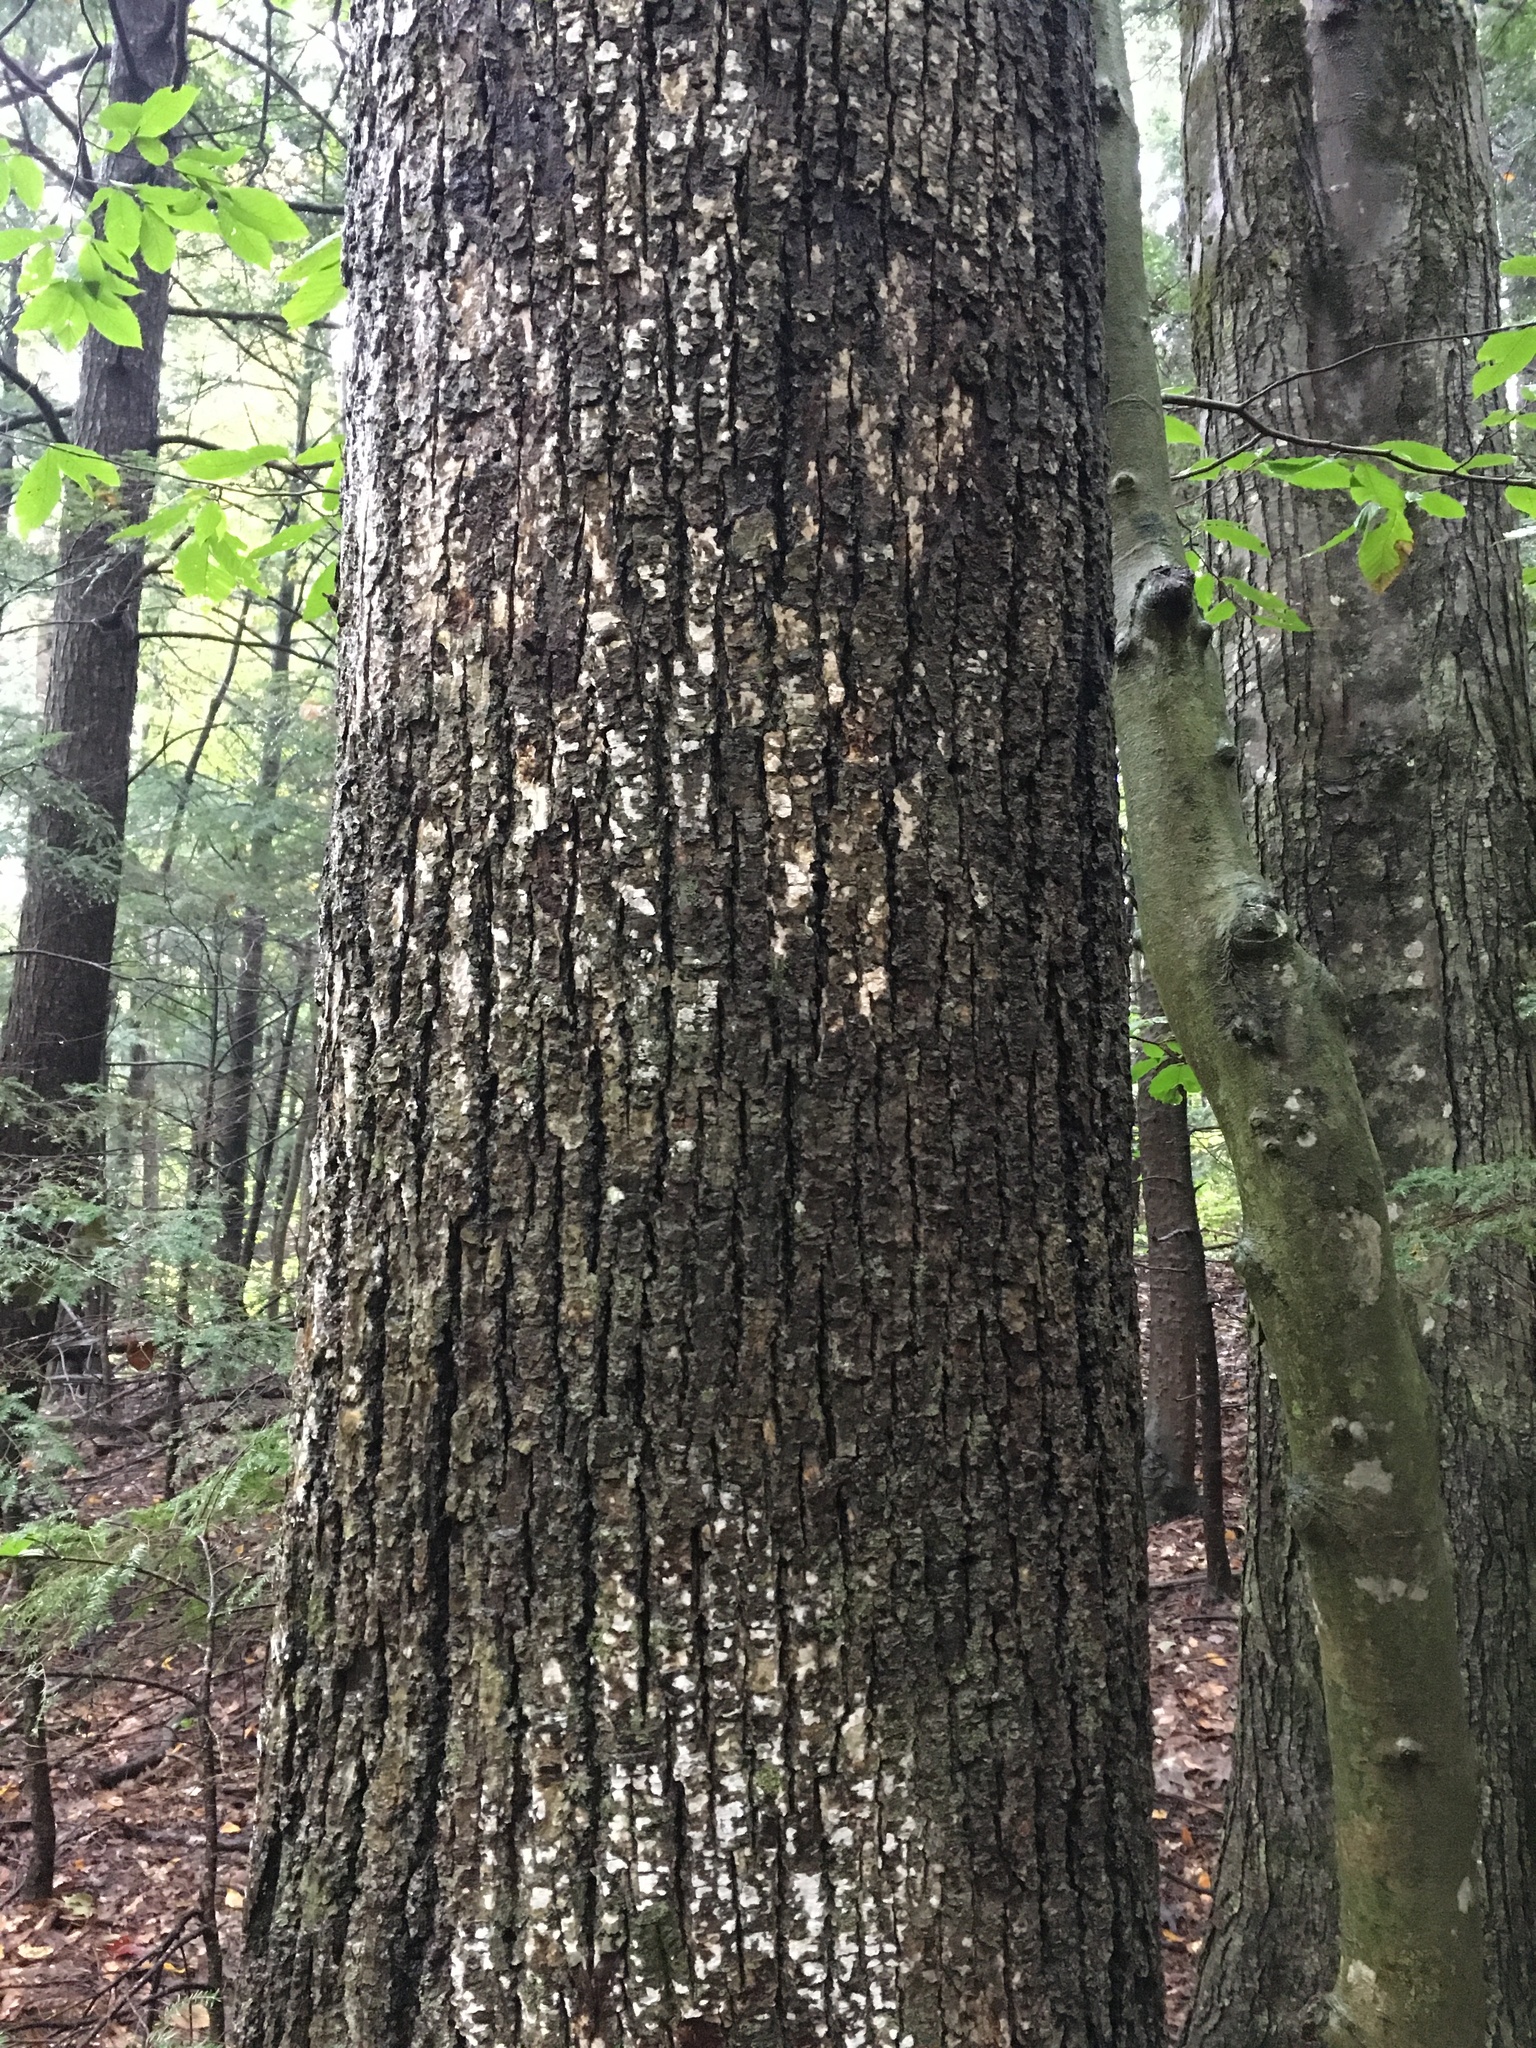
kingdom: Plantae
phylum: Tracheophyta
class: Magnoliopsida
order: Malvales
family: Malvaceae
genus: Tilia
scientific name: Tilia americana
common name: Basswood
